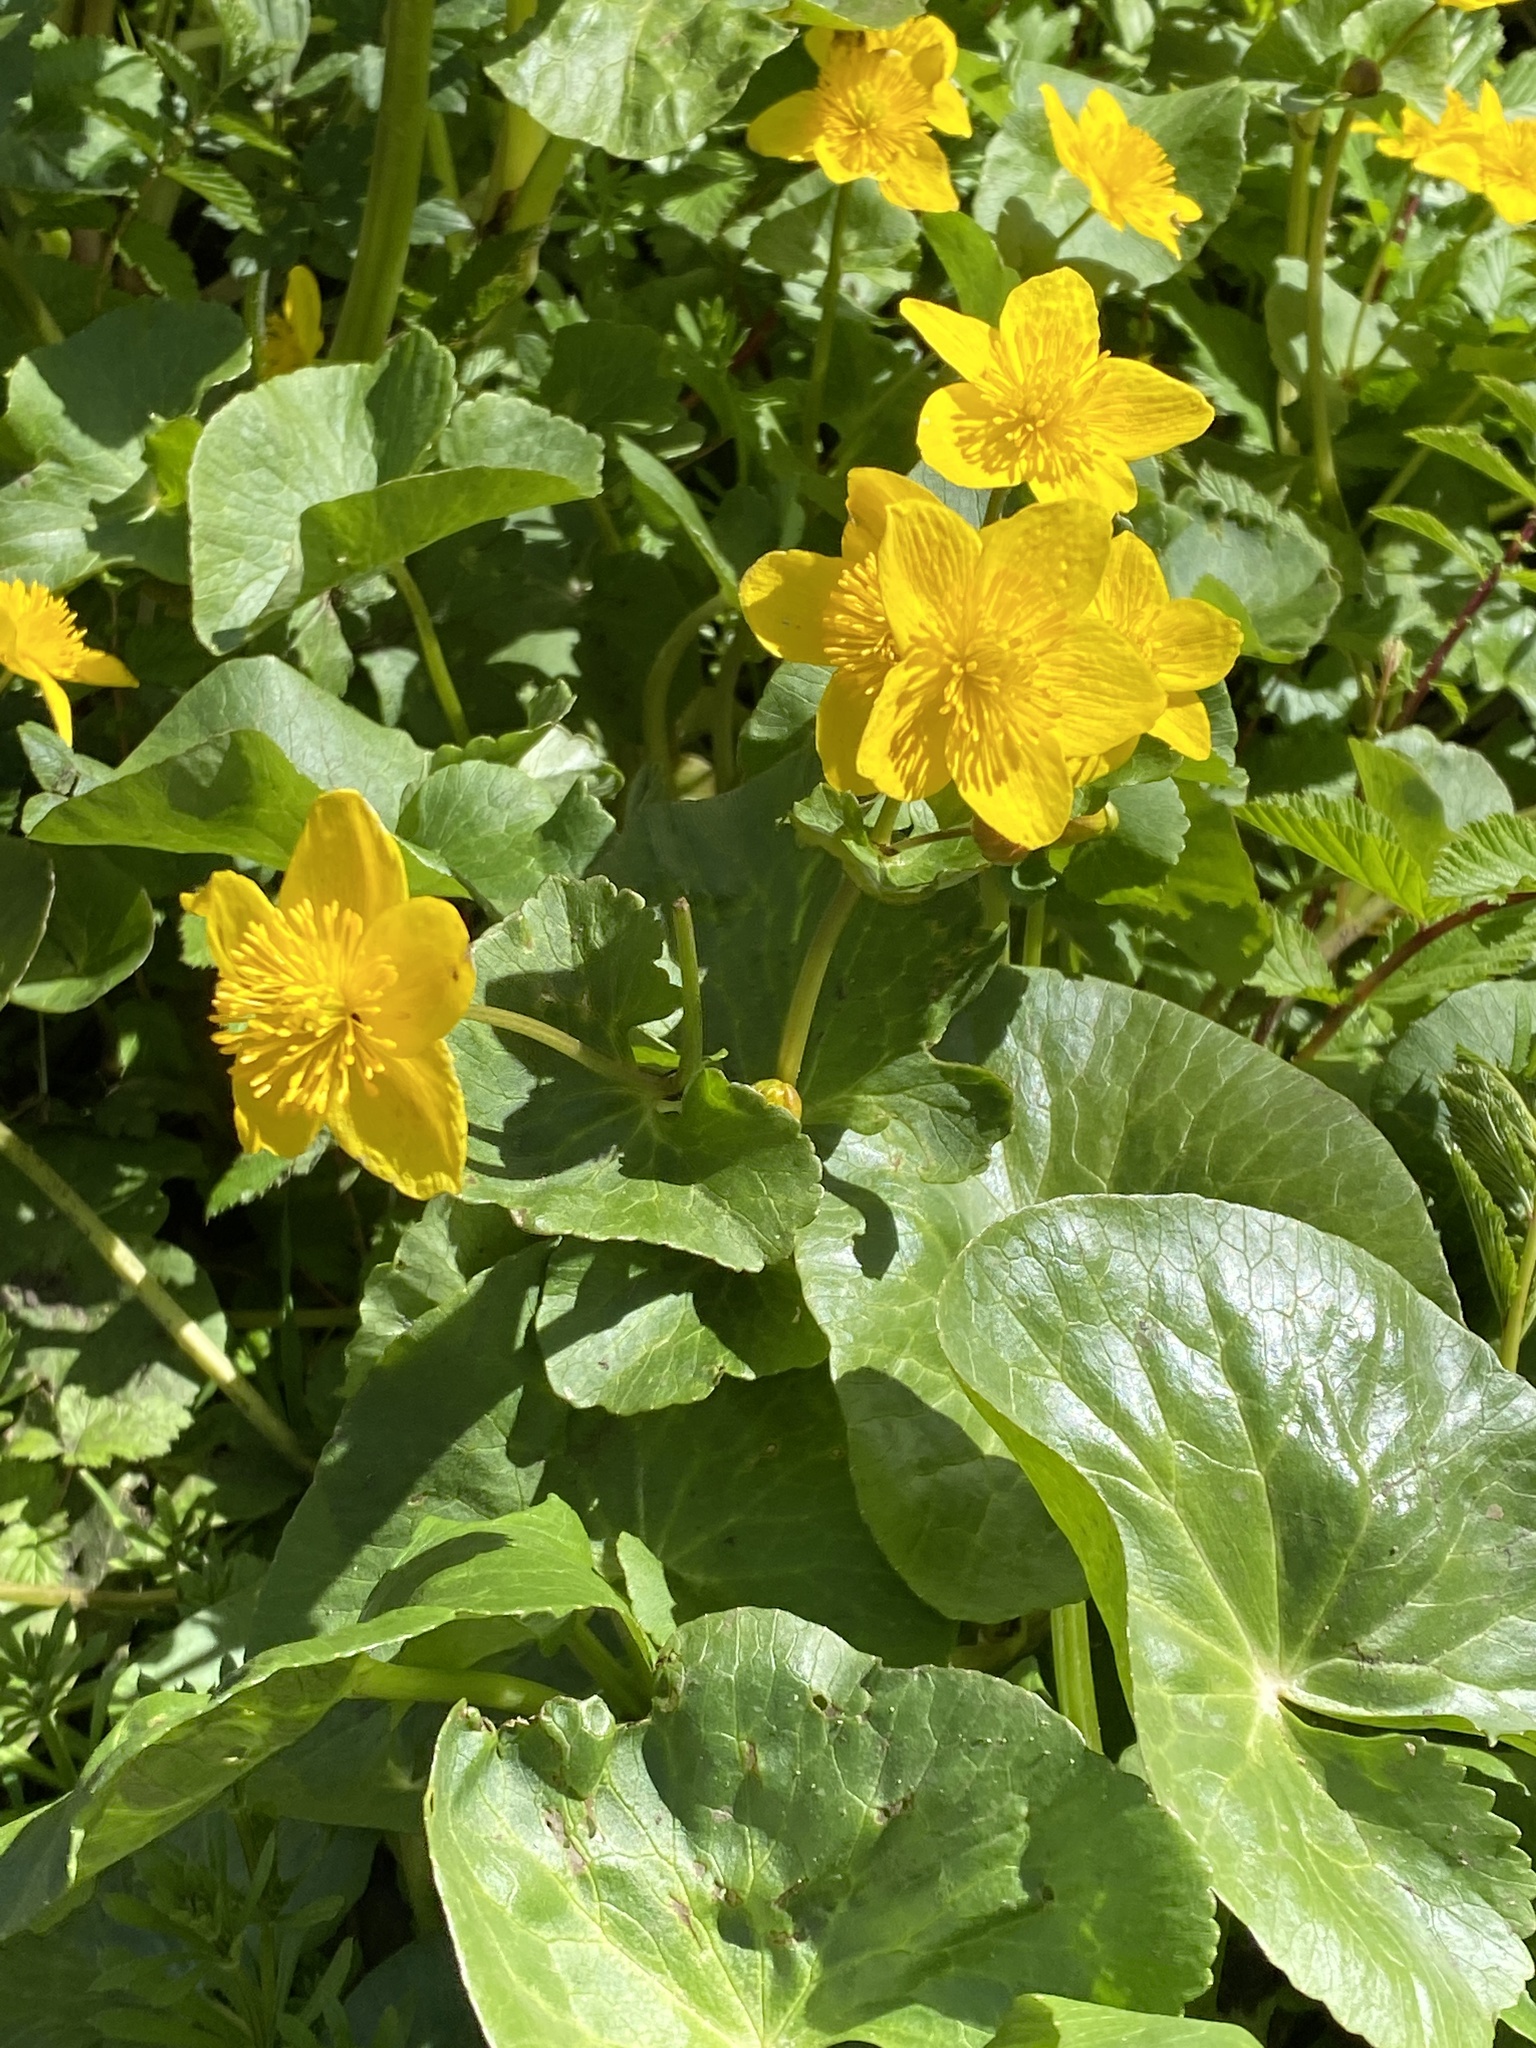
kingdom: Plantae
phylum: Tracheophyta
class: Magnoliopsida
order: Ranunculales
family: Ranunculaceae
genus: Caltha
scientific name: Caltha palustris
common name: Marsh marigold
